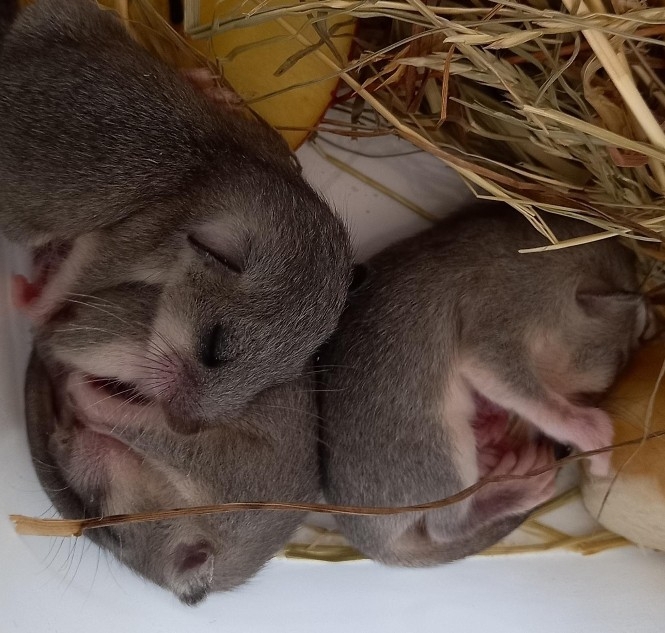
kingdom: Animalia
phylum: Chordata
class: Mammalia
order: Rodentia
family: Gliridae
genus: Glis
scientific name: Glis glis
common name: Fat dormouse
